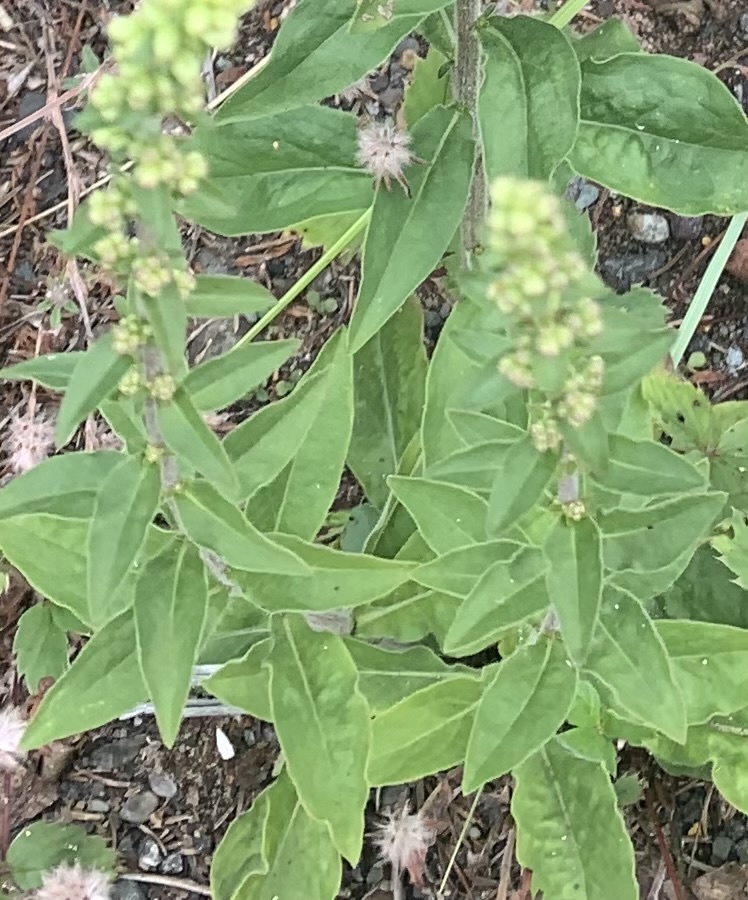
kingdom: Plantae
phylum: Tracheophyta
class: Magnoliopsida
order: Asterales
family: Asteraceae
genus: Solidago
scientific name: Solidago bicolor
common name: Silverrod
